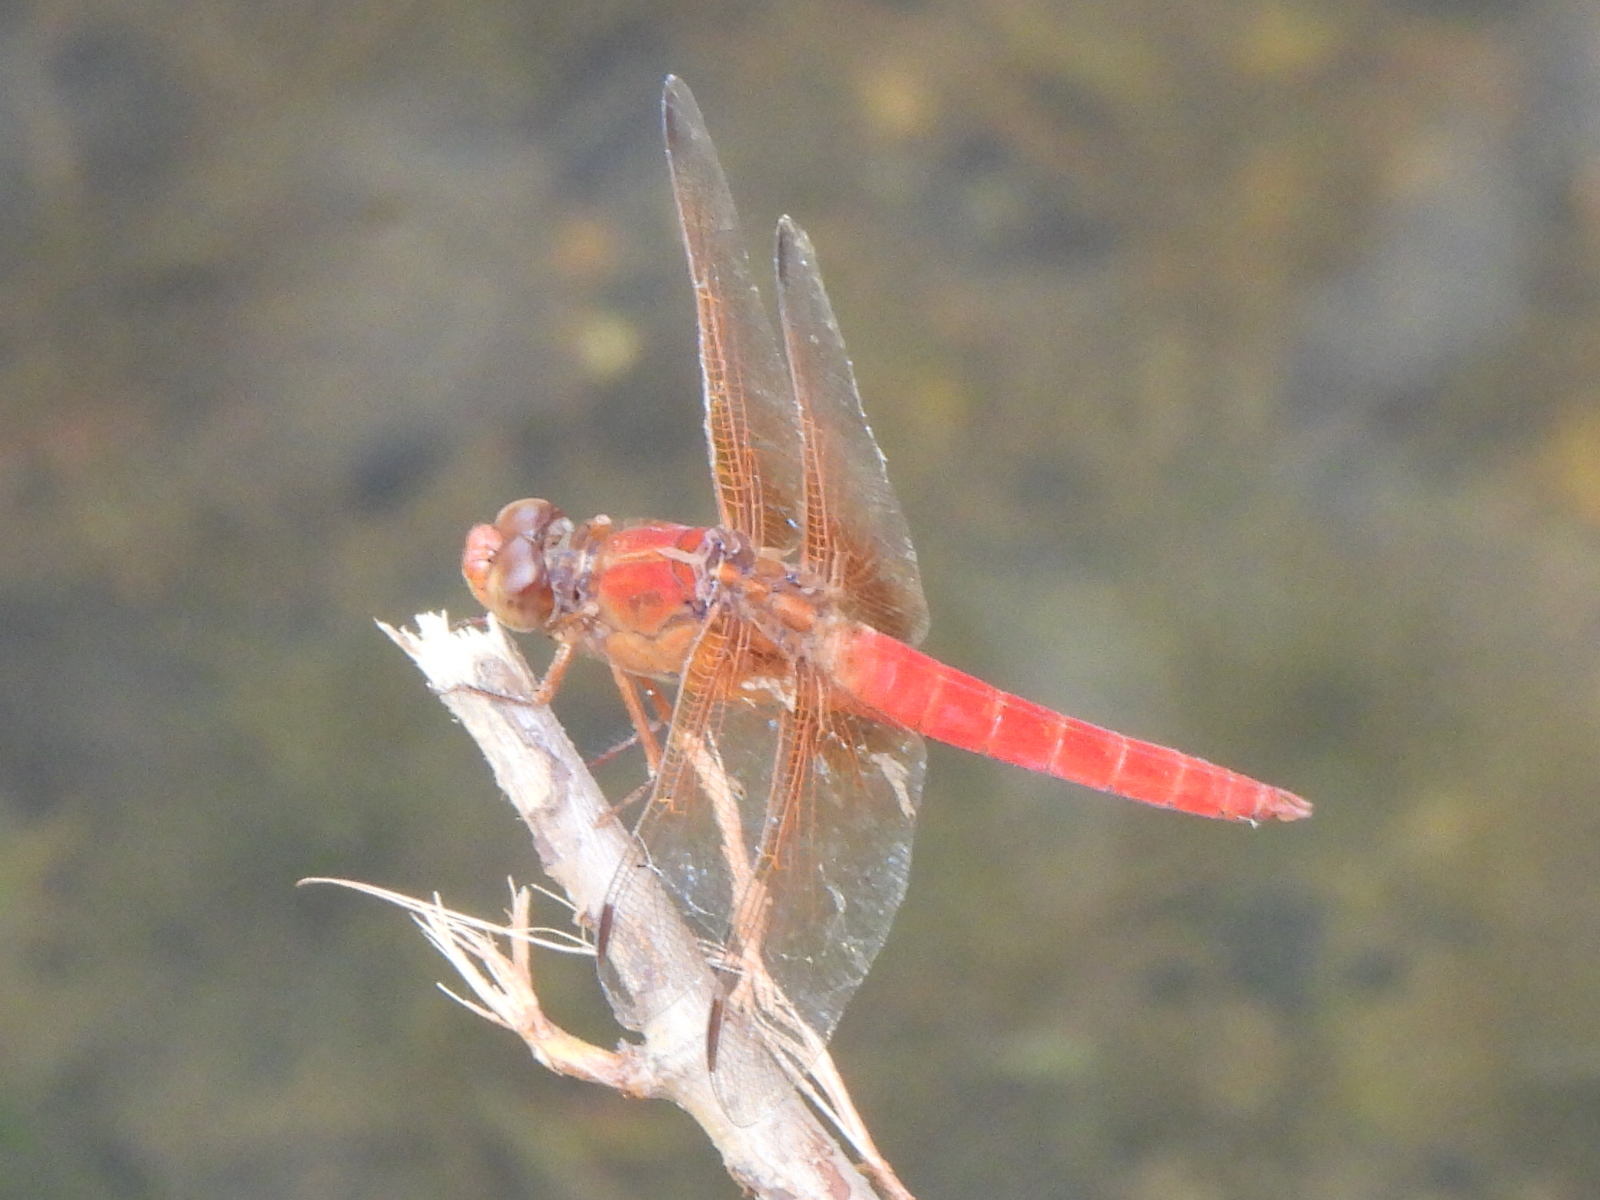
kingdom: Animalia
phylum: Arthropoda
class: Insecta
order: Odonata
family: Libellulidae
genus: Libellula
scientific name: Libellula croceipennis
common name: Neon skimmer
